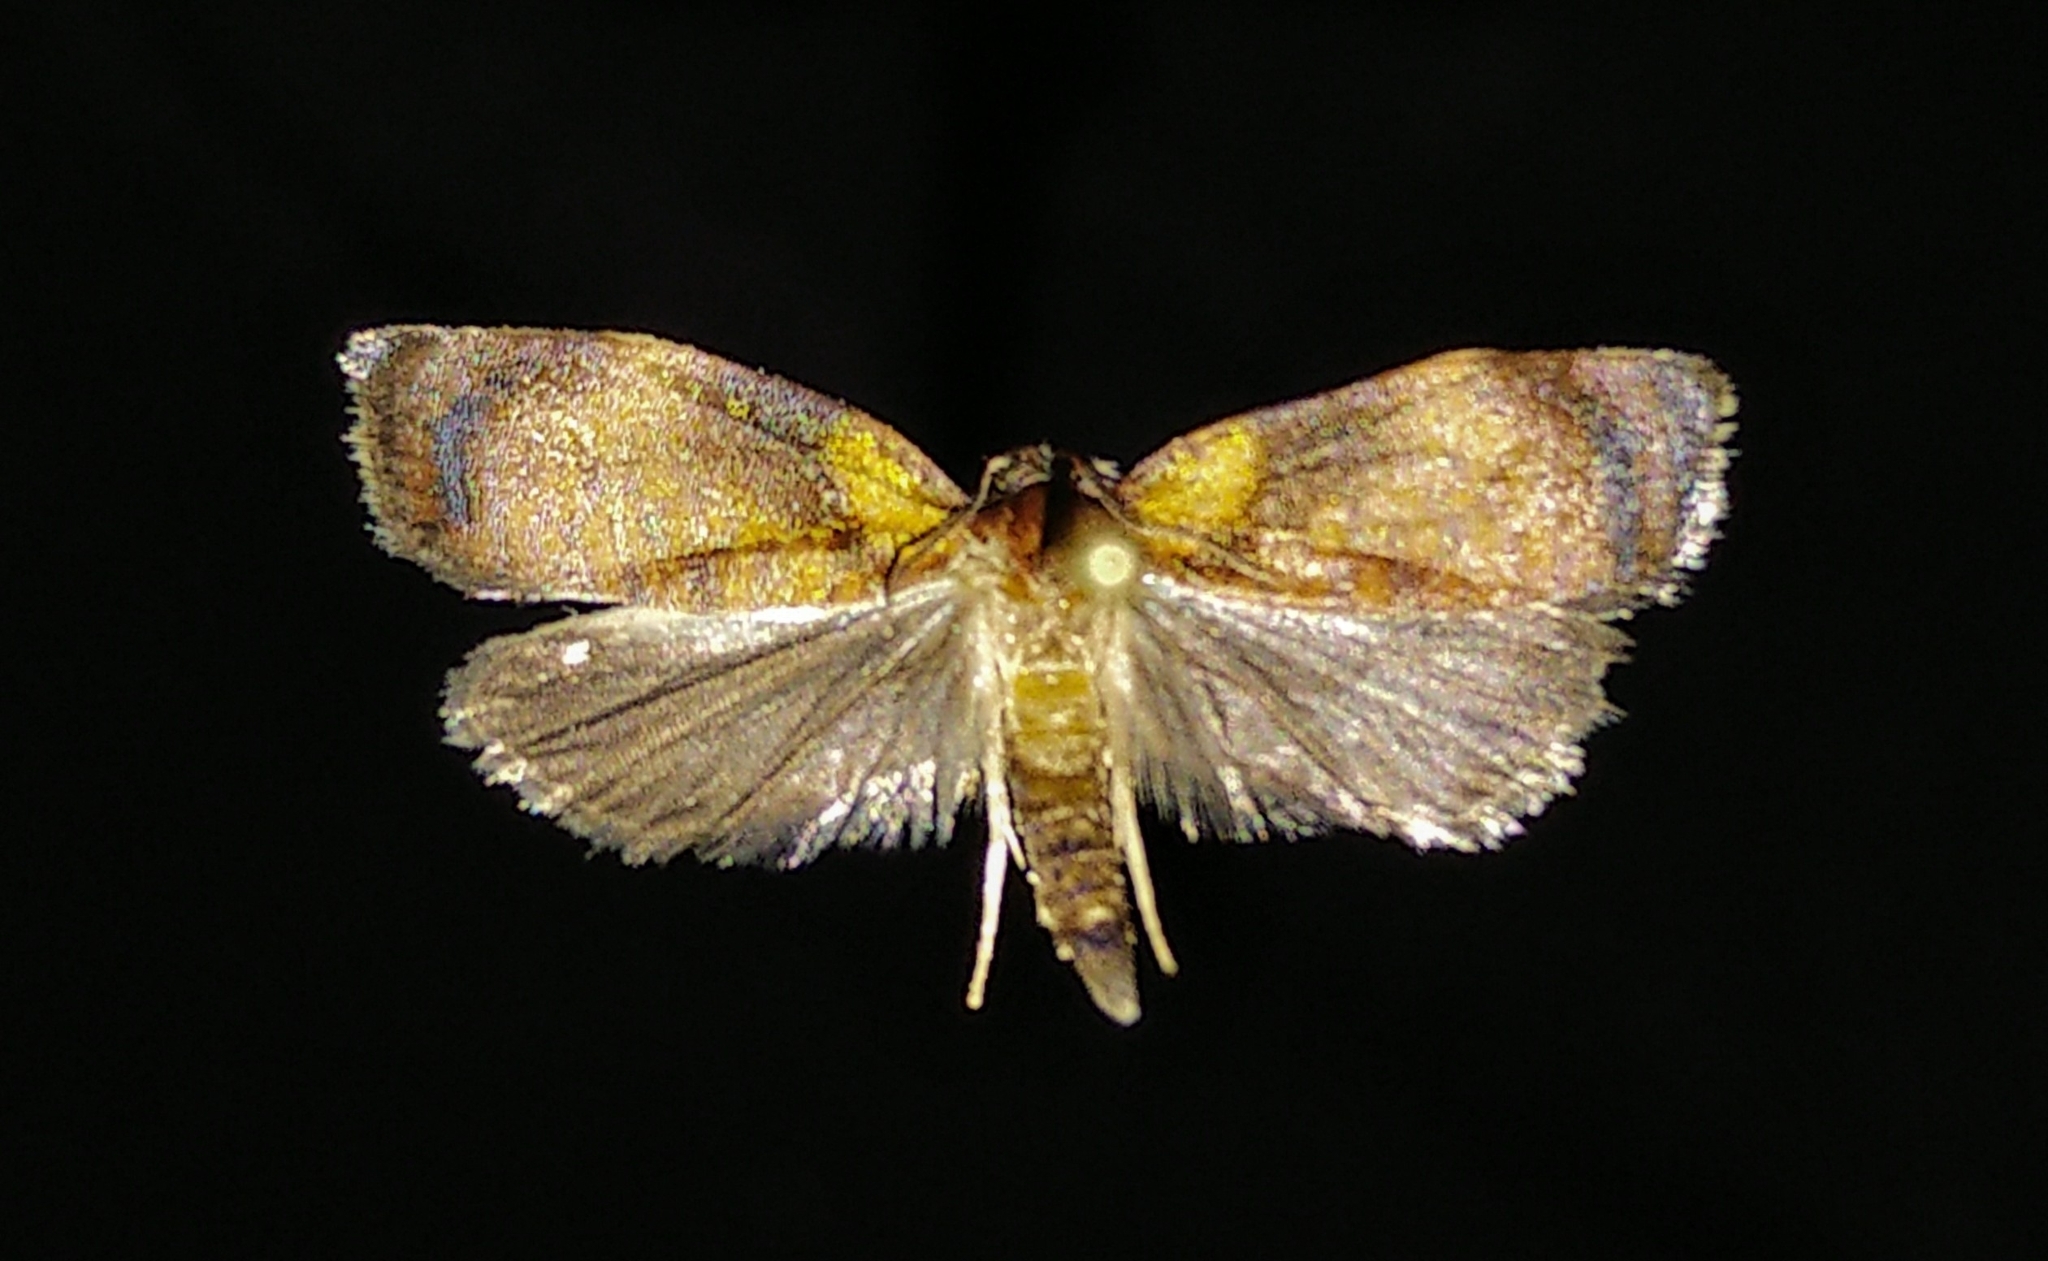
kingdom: Animalia
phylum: Arthropoda
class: Insecta
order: Lepidoptera
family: Tortricidae
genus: Sparganothis
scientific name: Sparganothis flavibasana
